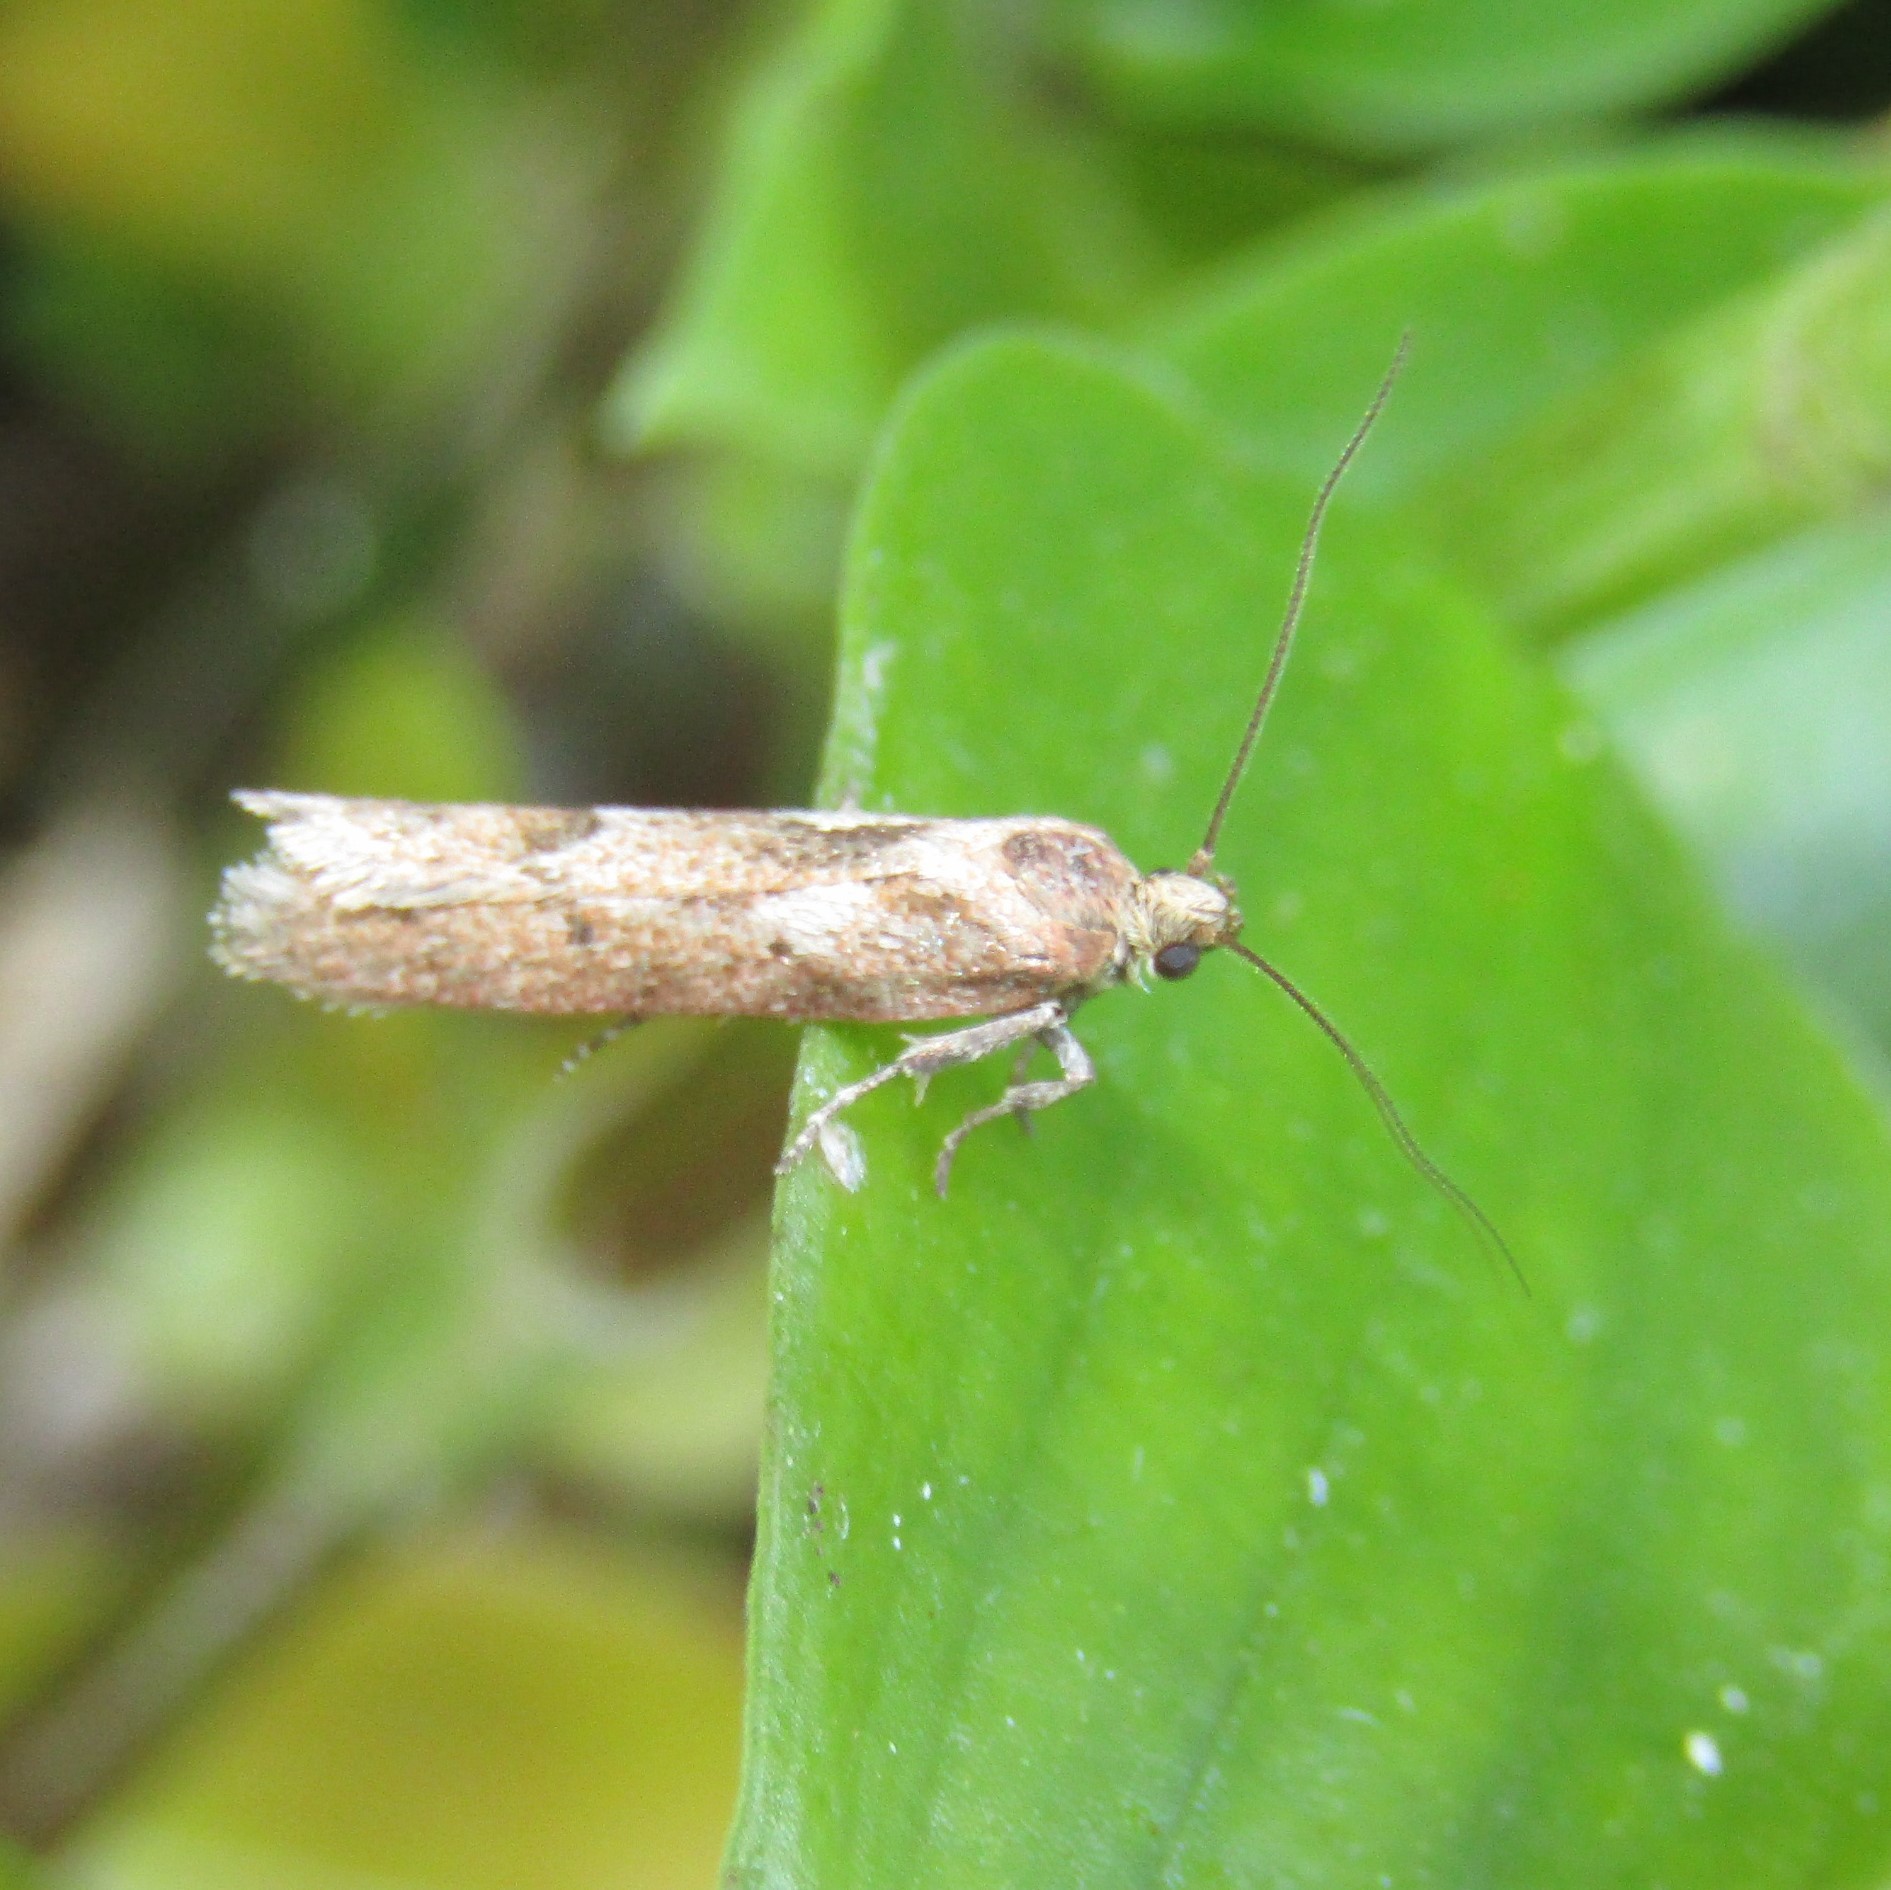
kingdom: Animalia
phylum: Arthropoda
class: Insecta
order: Lepidoptera
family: Oecophoridae
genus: Chersadaula
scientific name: Chersadaula ochrogastra
